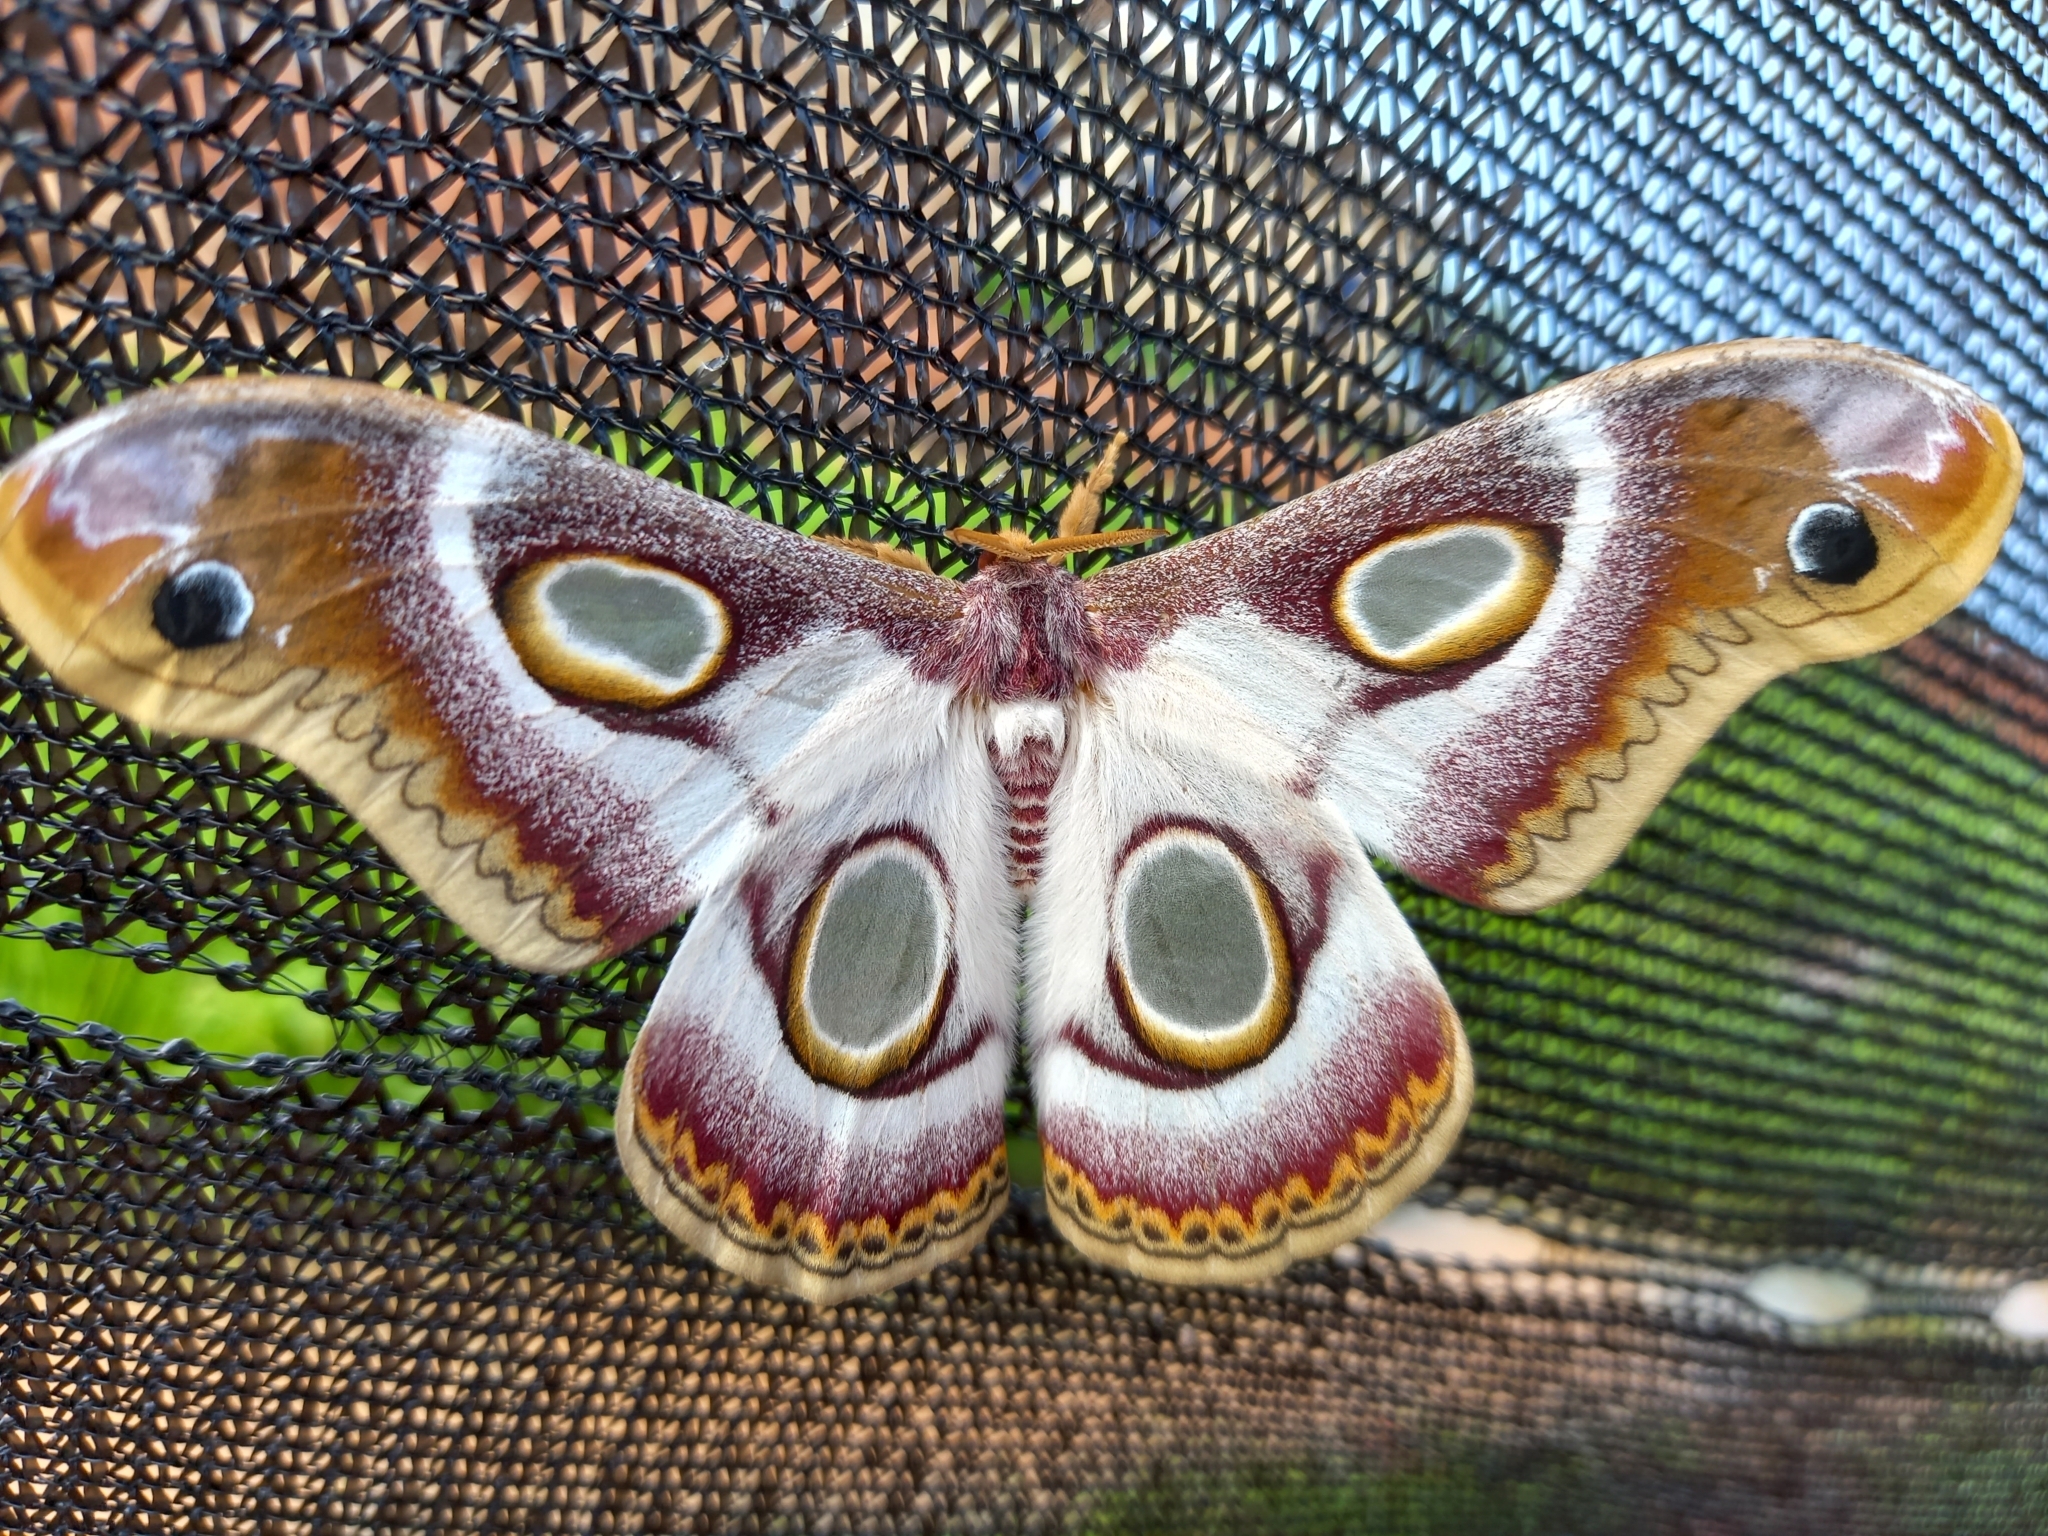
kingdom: Animalia
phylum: Arthropoda
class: Insecta
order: Lepidoptera
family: Saturniidae
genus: Epiphora
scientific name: Epiphora bauhiniae
